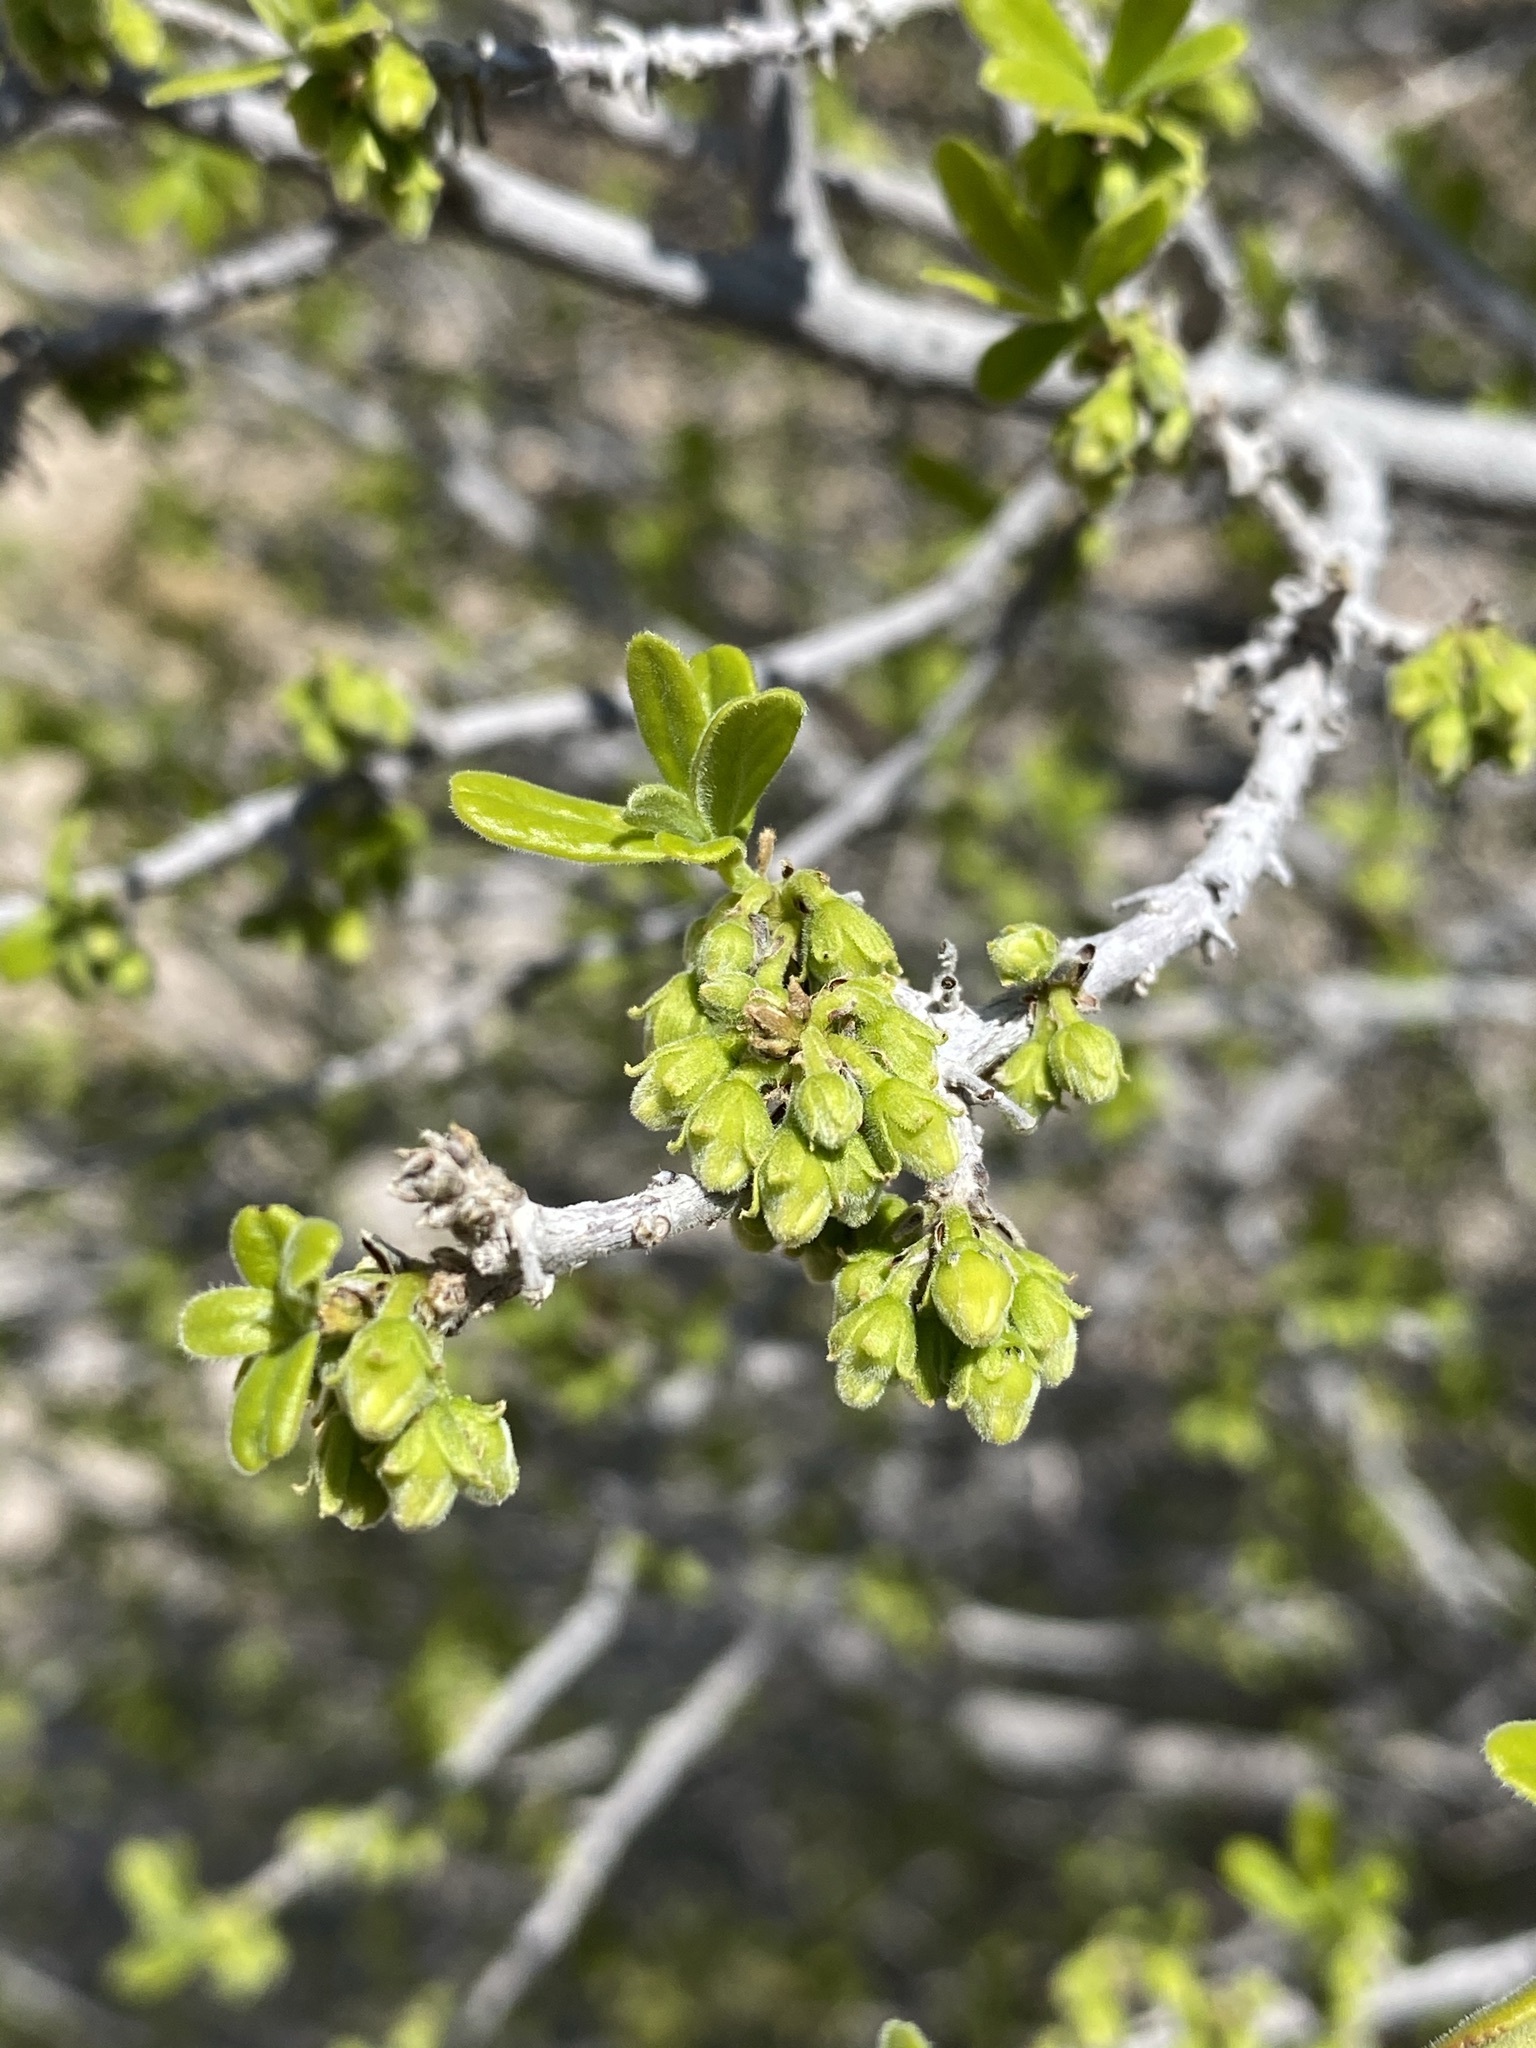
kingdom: Plantae
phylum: Tracheophyta
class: Magnoliopsida
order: Ericales
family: Ebenaceae
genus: Diospyros
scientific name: Diospyros texana
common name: Texas persimmon
